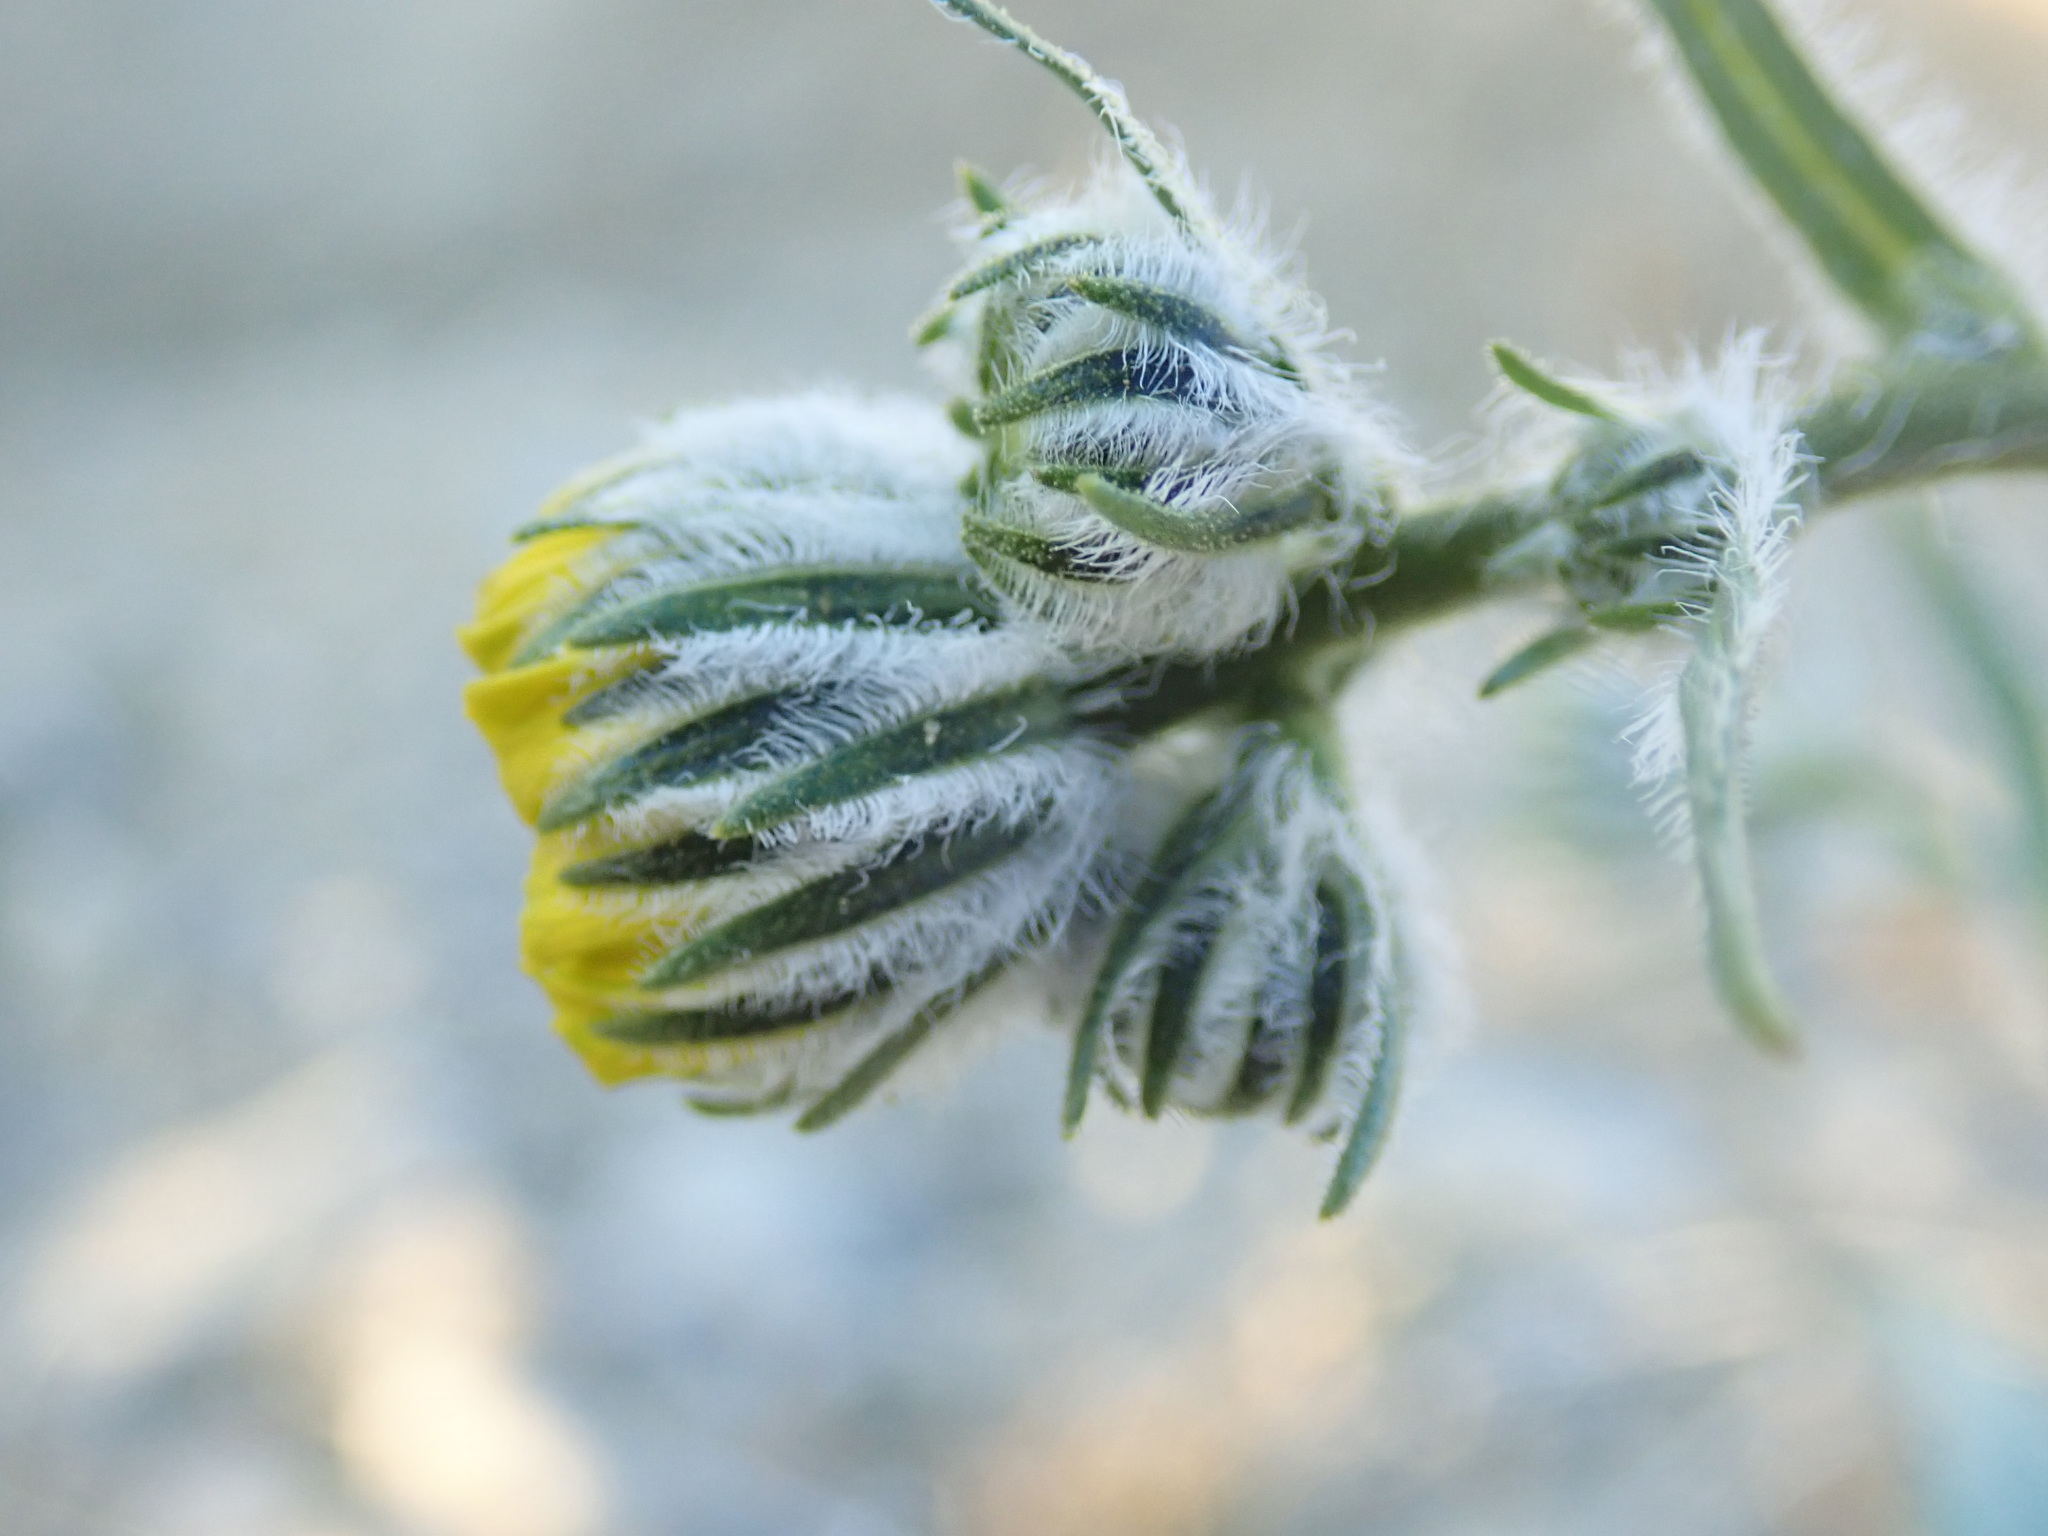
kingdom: Plantae
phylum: Tracheophyta
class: Magnoliopsida
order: Asterales
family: Asteraceae
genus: Geraea
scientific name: Geraea canescens
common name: Desert-gold
